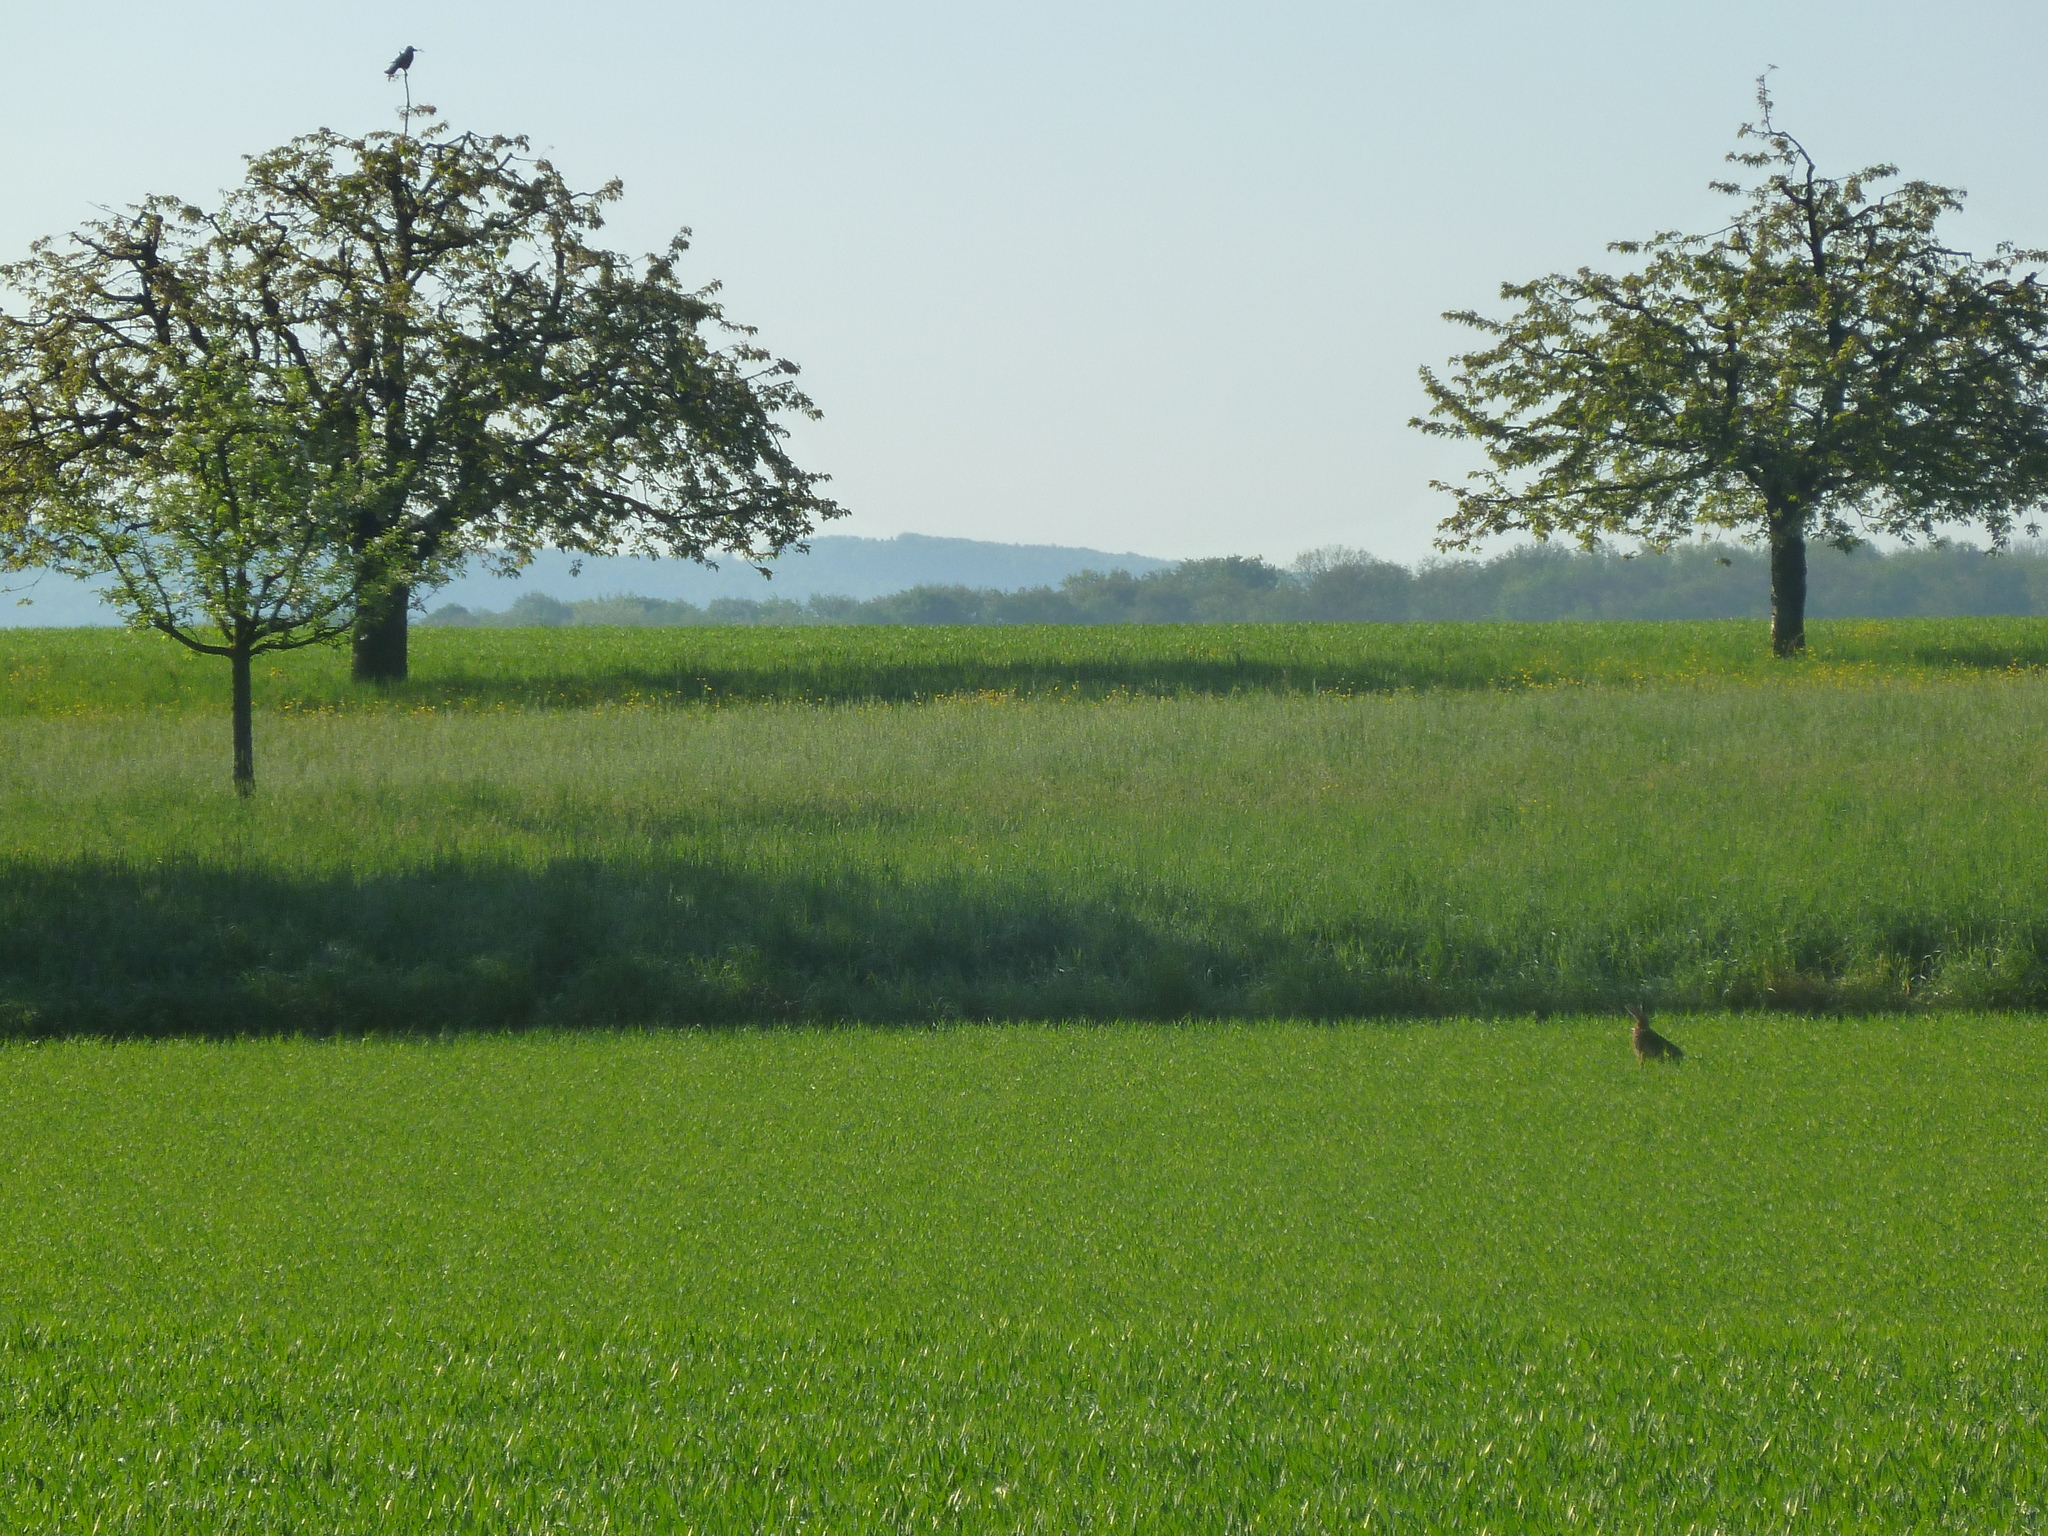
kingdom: Animalia
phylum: Chordata
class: Mammalia
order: Lagomorpha
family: Leporidae
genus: Lepus
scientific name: Lepus europaeus
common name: European hare
